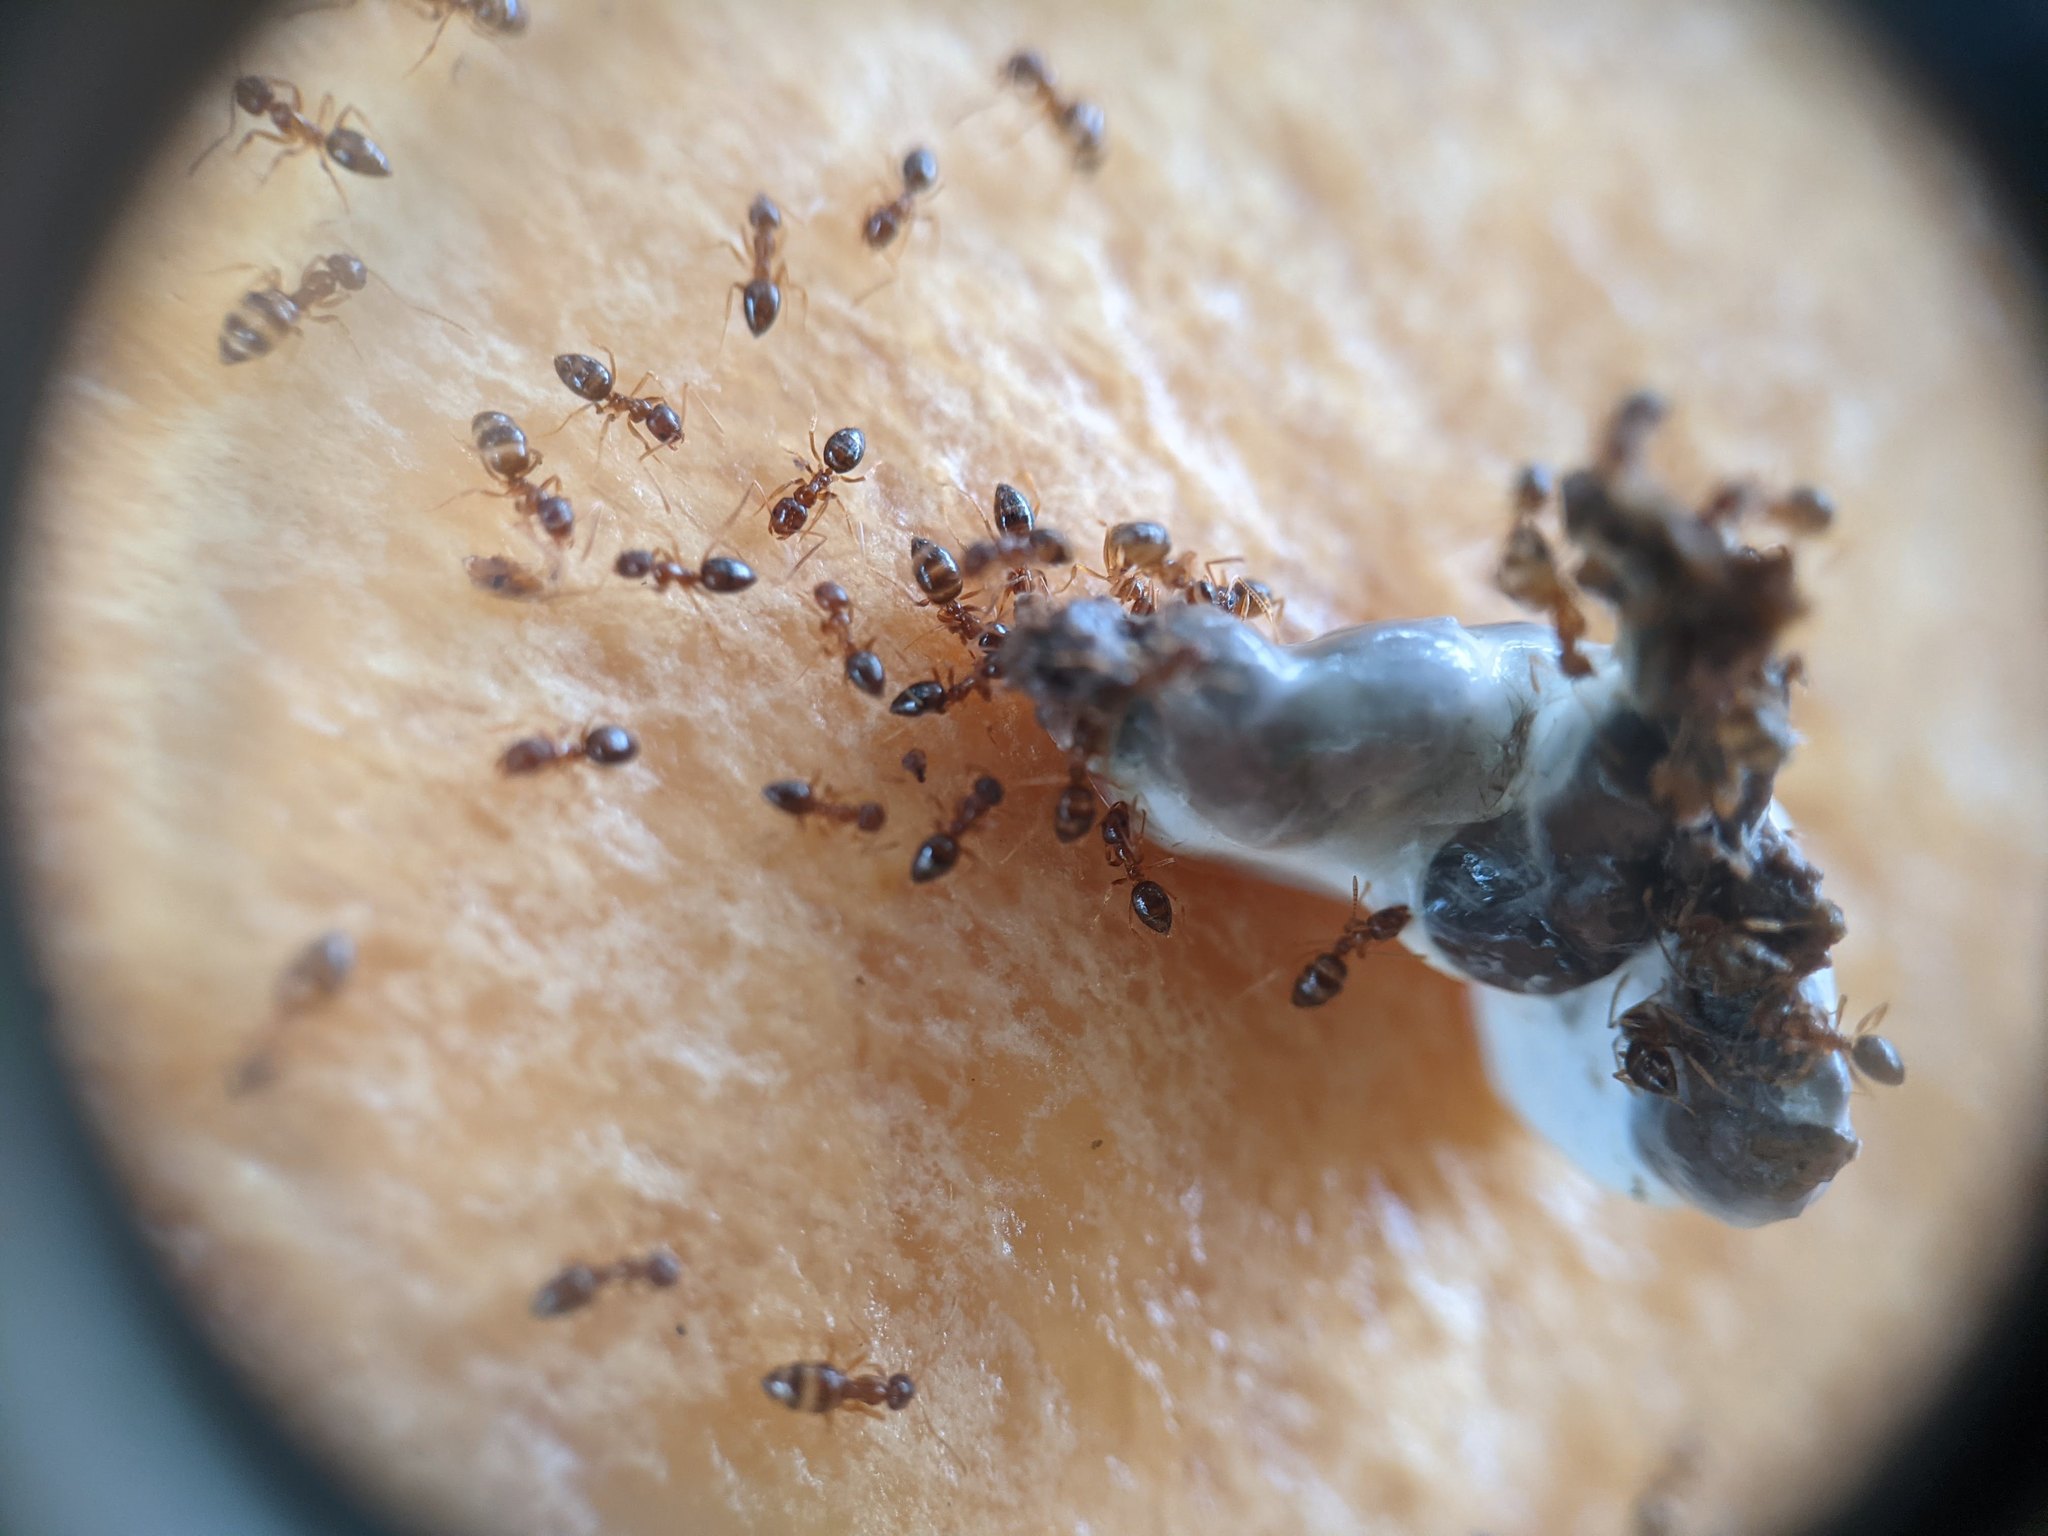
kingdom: Animalia
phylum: Arthropoda
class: Insecta
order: Hymenoptera
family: Formicidae
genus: Paratrechina
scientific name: Paratrechina flavipes
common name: Eastern asian formicine ant
